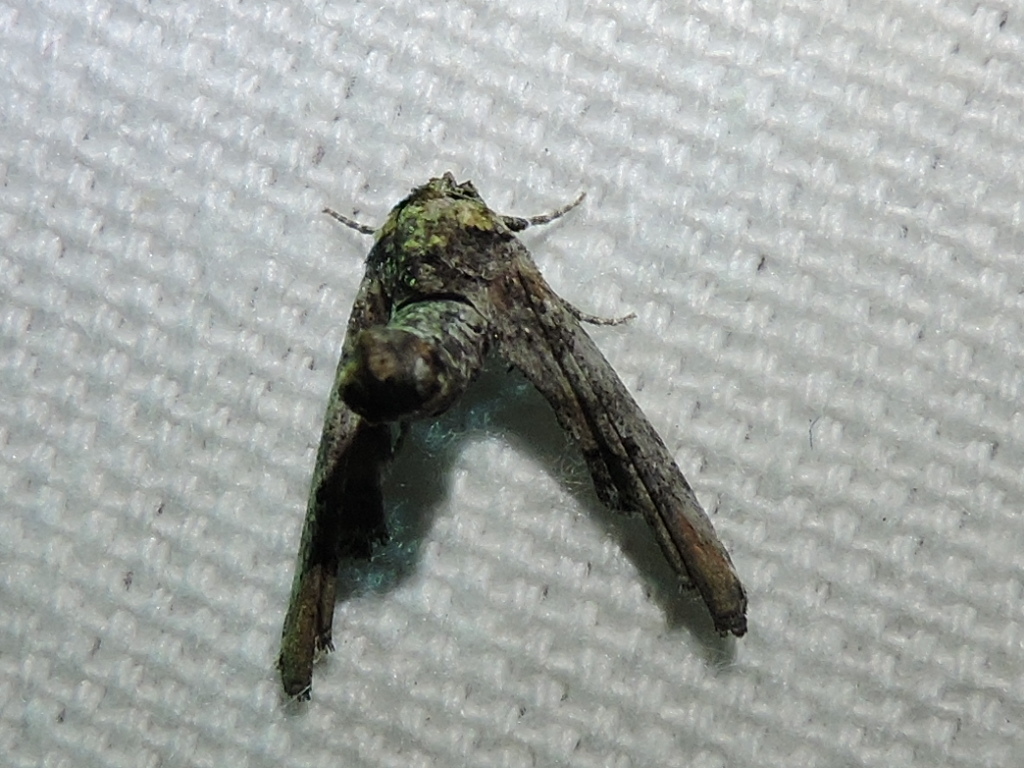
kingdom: Animalia
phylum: Arthropoda
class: Insecta
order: Lepidoptera
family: Euteliidae
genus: Marathyssa
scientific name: Marathyssa inficita
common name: Dark marathyssa moth
